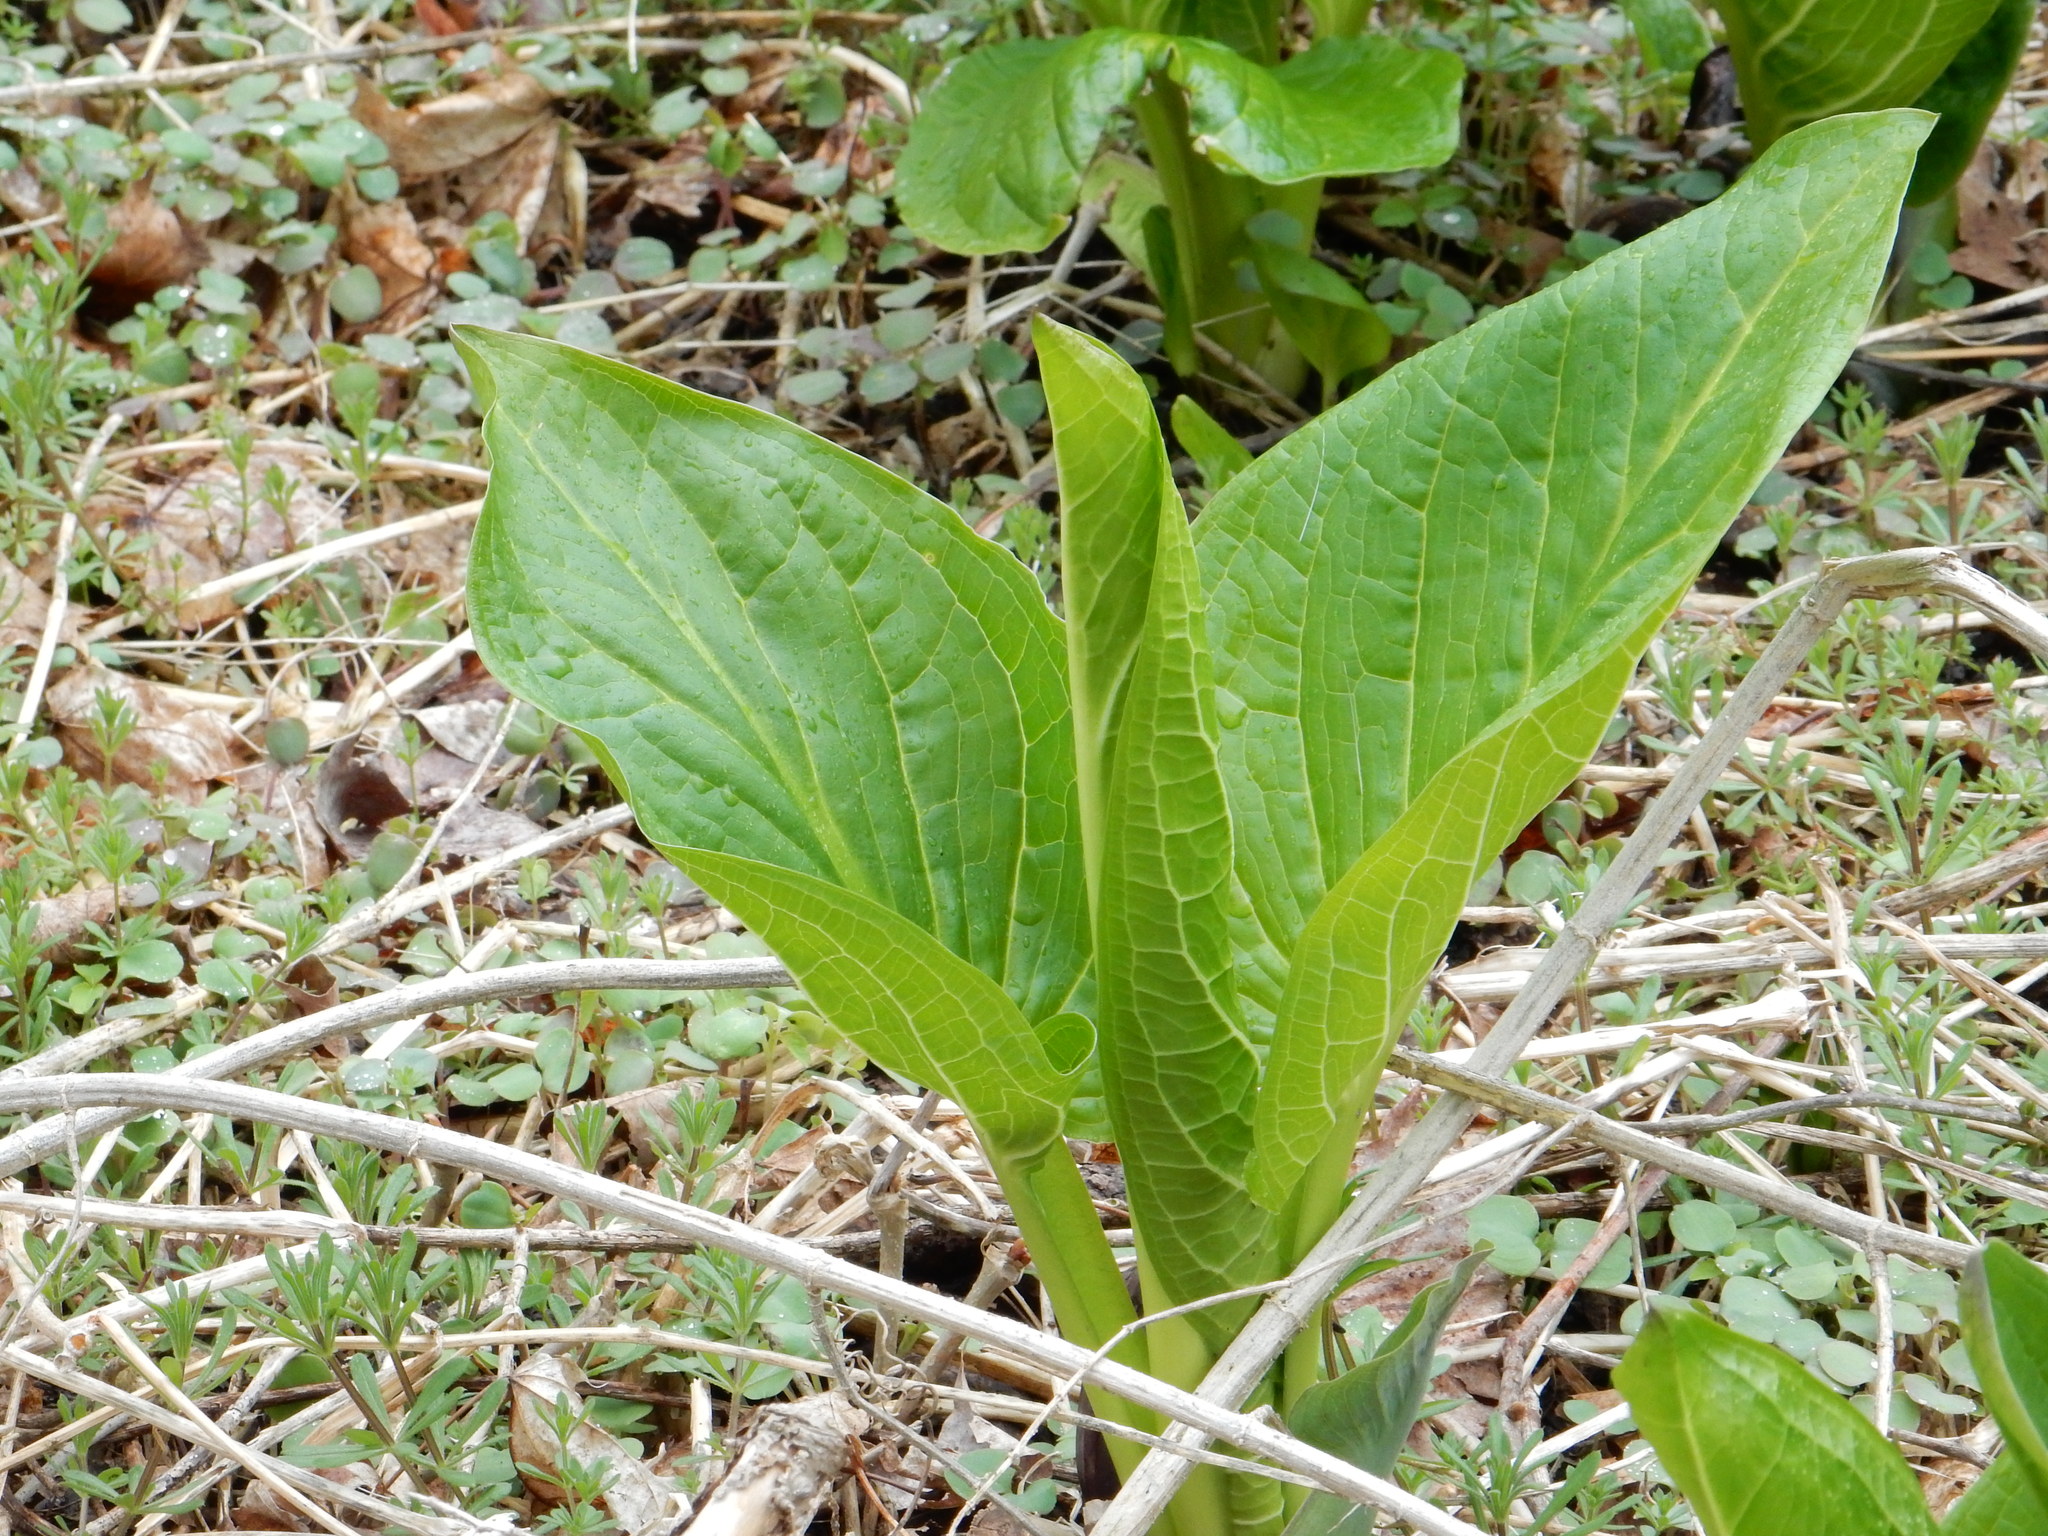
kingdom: Plantae
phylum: Tracheophyta
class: Liliopsida
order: Alismatales
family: Araceae
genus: Symplocarpus
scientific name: Symplocarpus foetidus
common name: Eastern skunk cabbage
